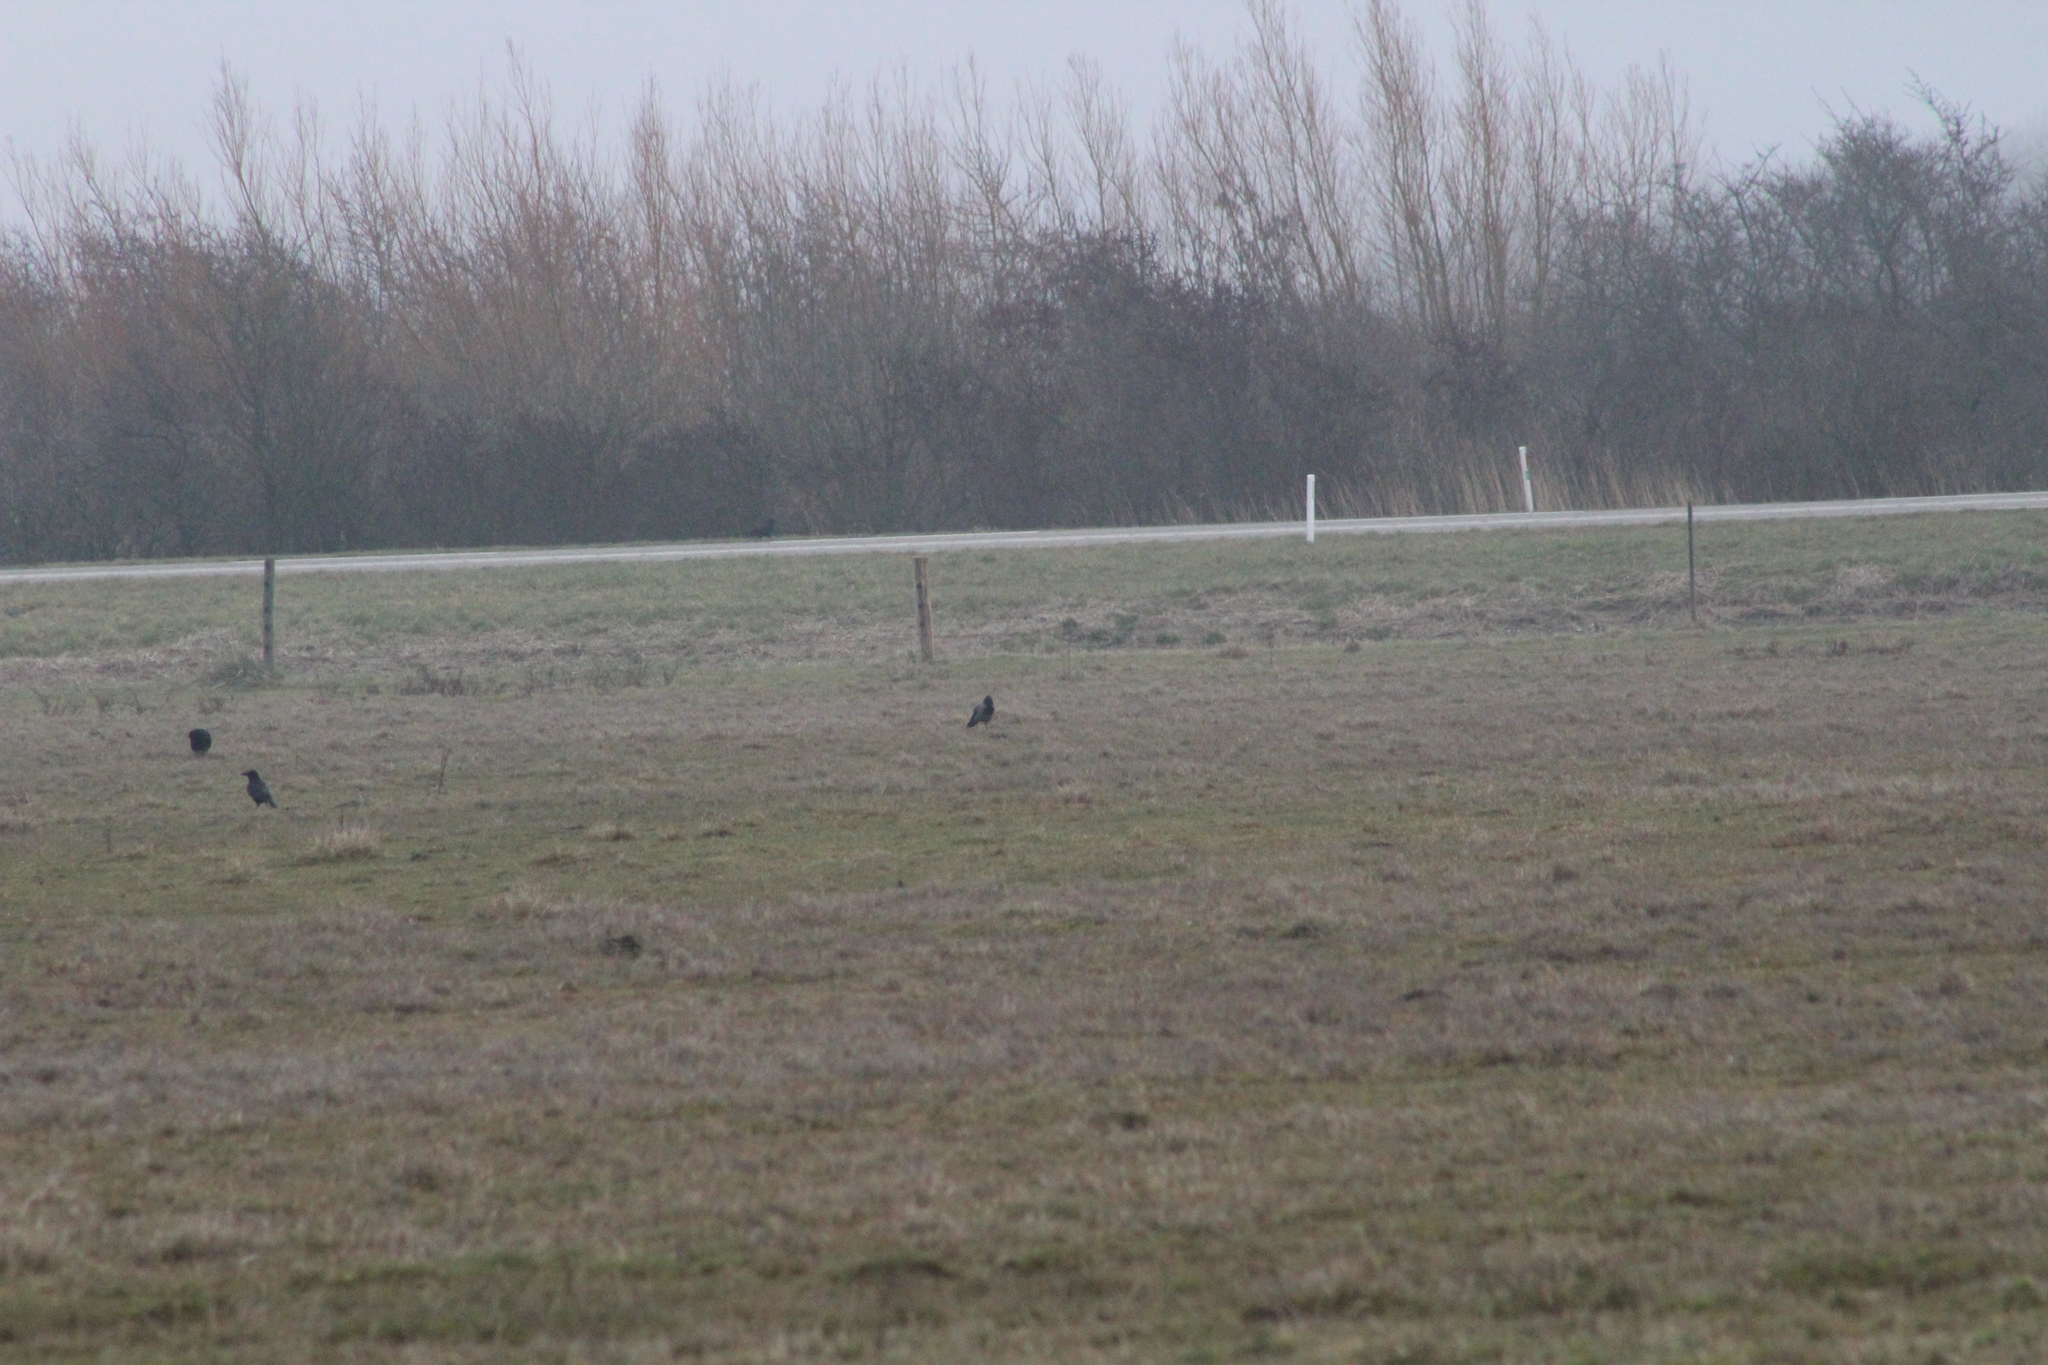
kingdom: Animalia
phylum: Chordata
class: Aves
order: Passeriformes
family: Corvidae
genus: Corvus
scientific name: Corvus cornix
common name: Hooded crow
